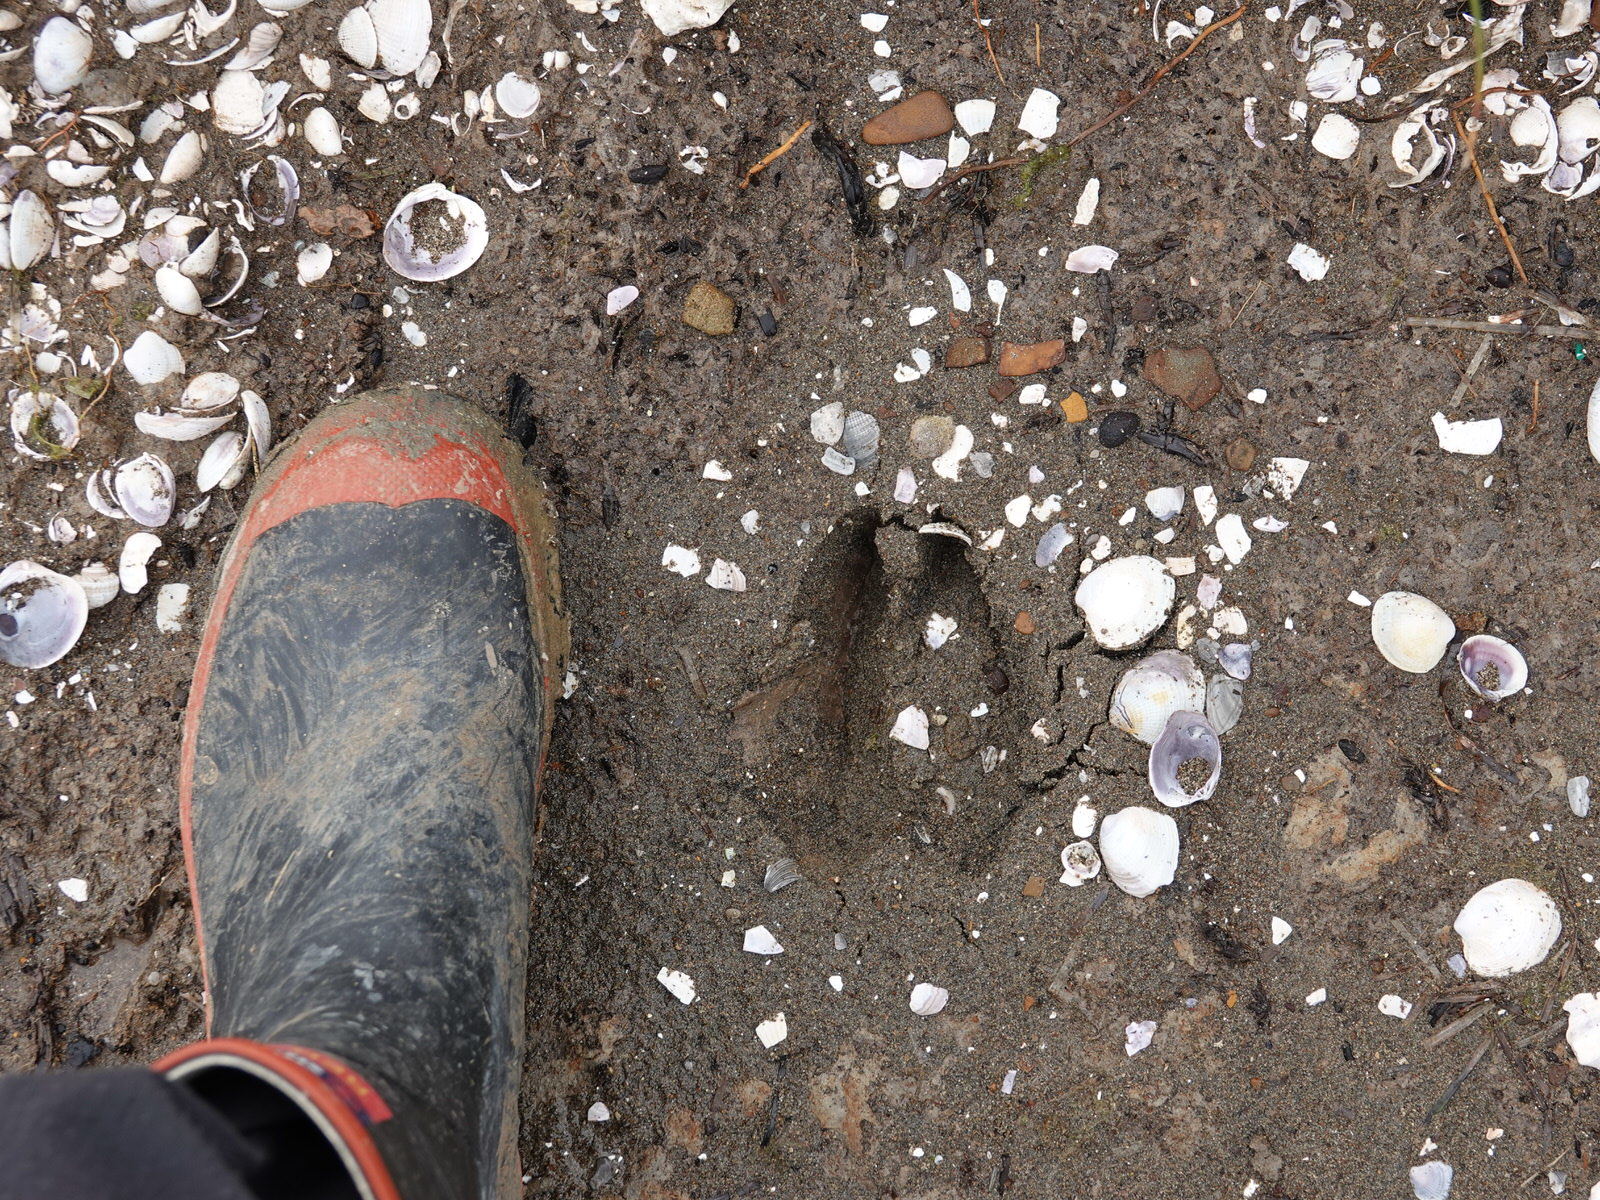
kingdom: Animalia
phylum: Chordata
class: Mammalia
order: Artiodactyla
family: Cervidae
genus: Cervus
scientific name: Cervus elaphus
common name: Red deer
